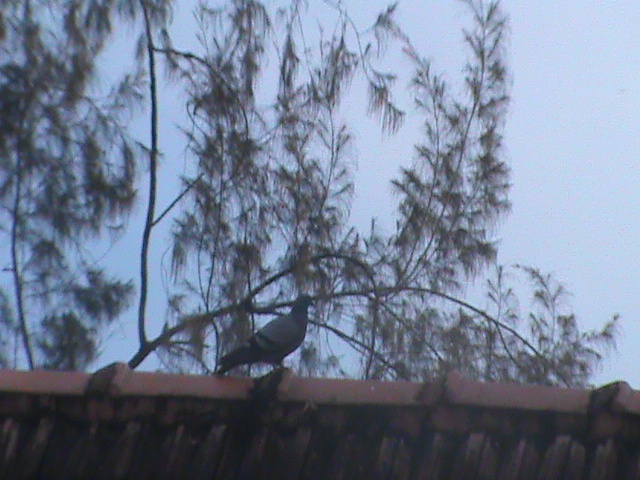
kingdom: Animalia
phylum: Chordata
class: Aves
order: Columbiformes
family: Columbidae
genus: Columba
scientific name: Columba livia
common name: Rock pigeon
